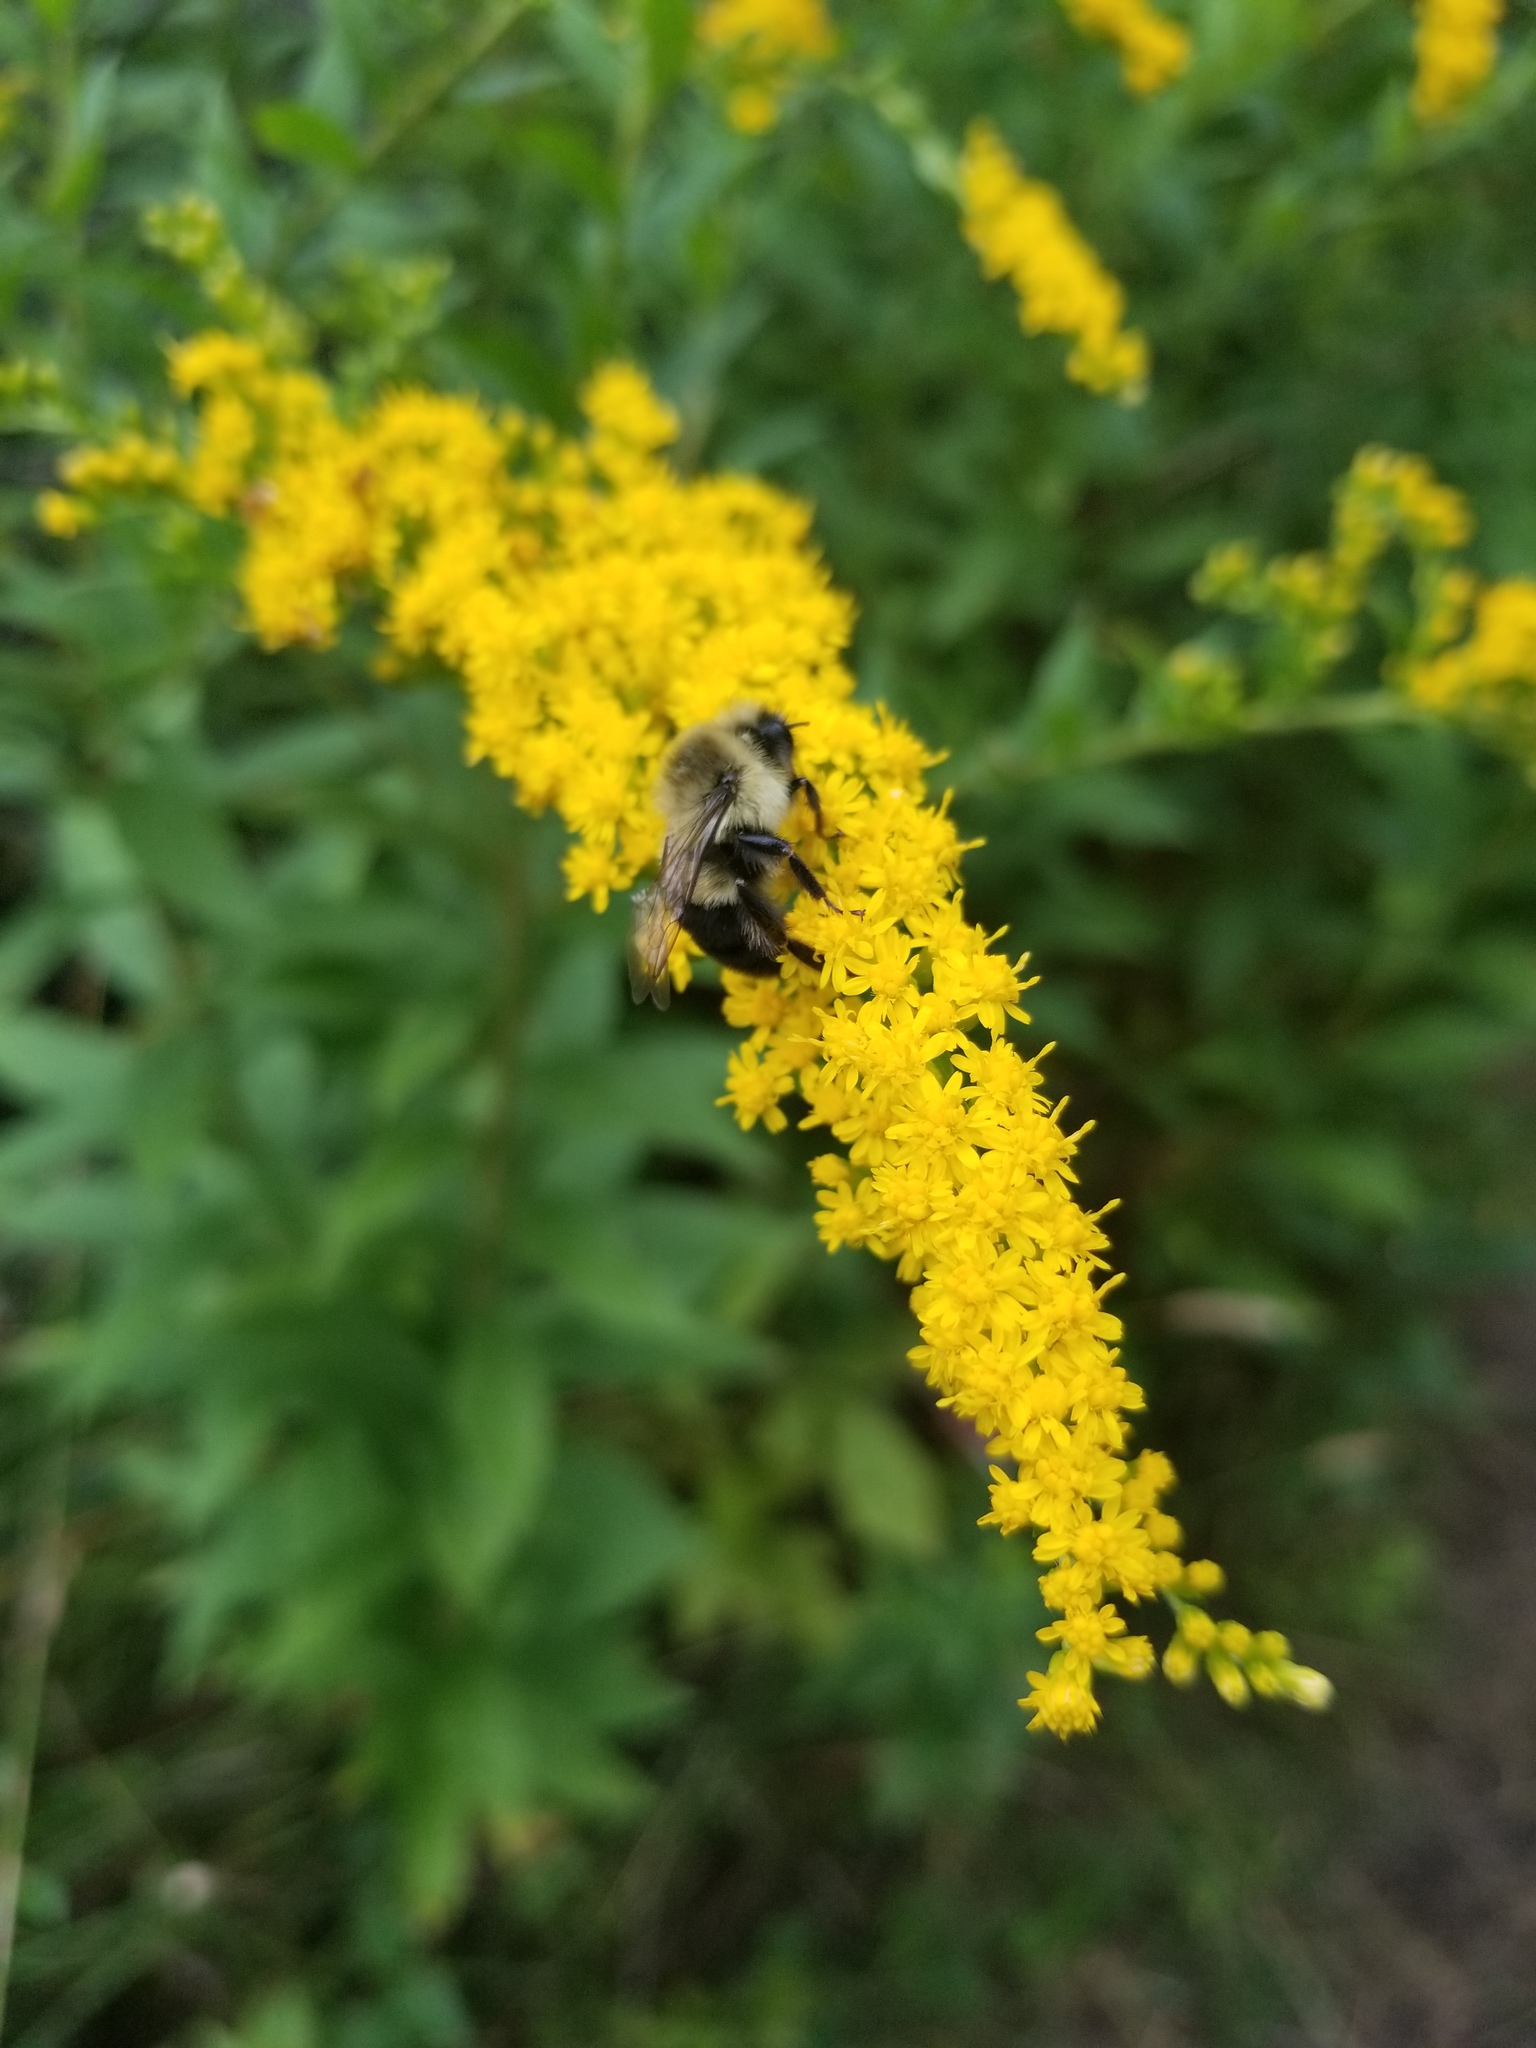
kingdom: Animalia
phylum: Arthropoda
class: Insecta
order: Hymenoptera
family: Apidae
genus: Bombus
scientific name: Bombus impatiens
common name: Common eastern bumble bee
